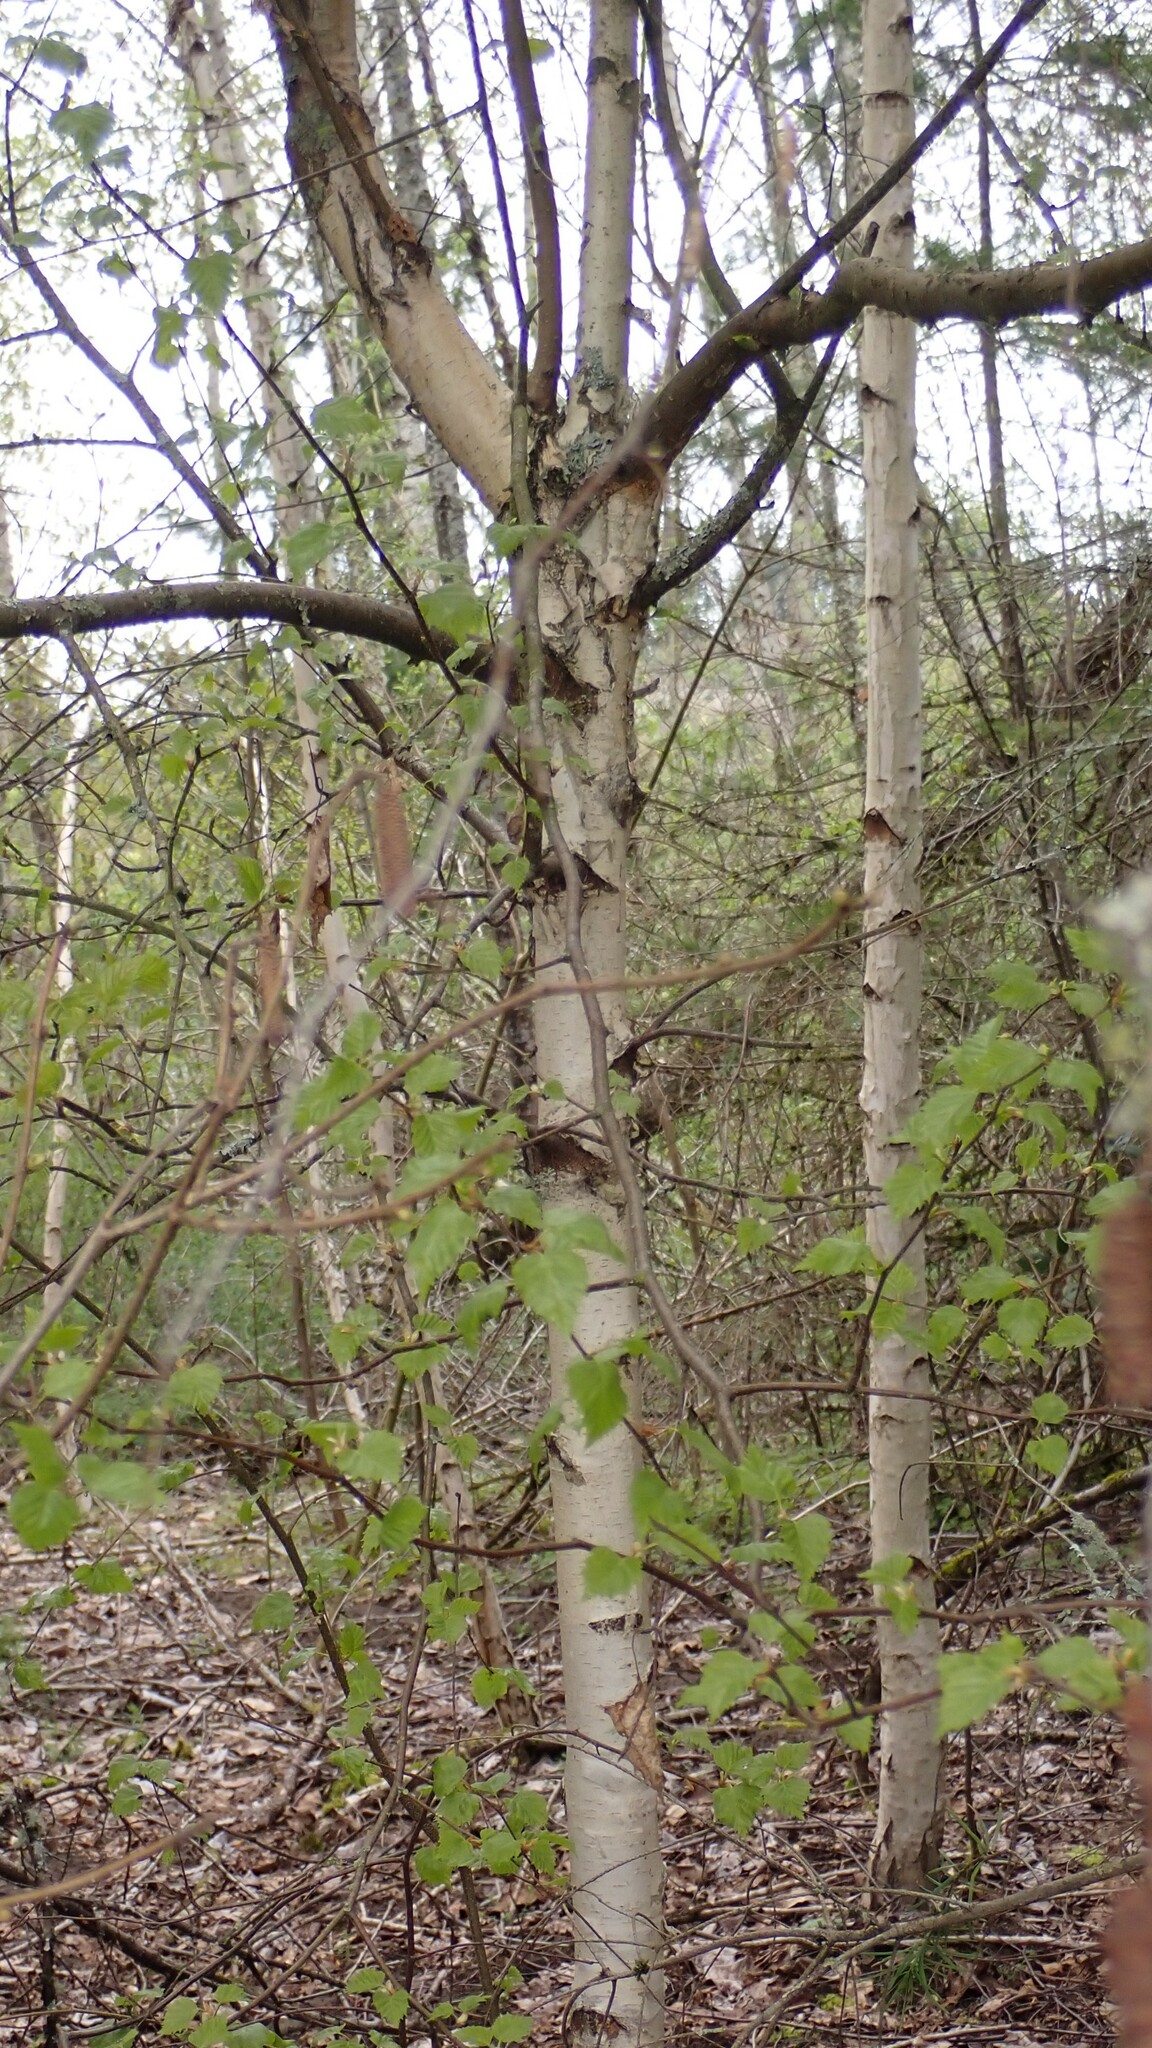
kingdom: Plantae
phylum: Tracheophyta
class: Magnoliopsida
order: Fagales
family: Betulaceae
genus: Betula
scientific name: Betula pendula
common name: Silver birch
